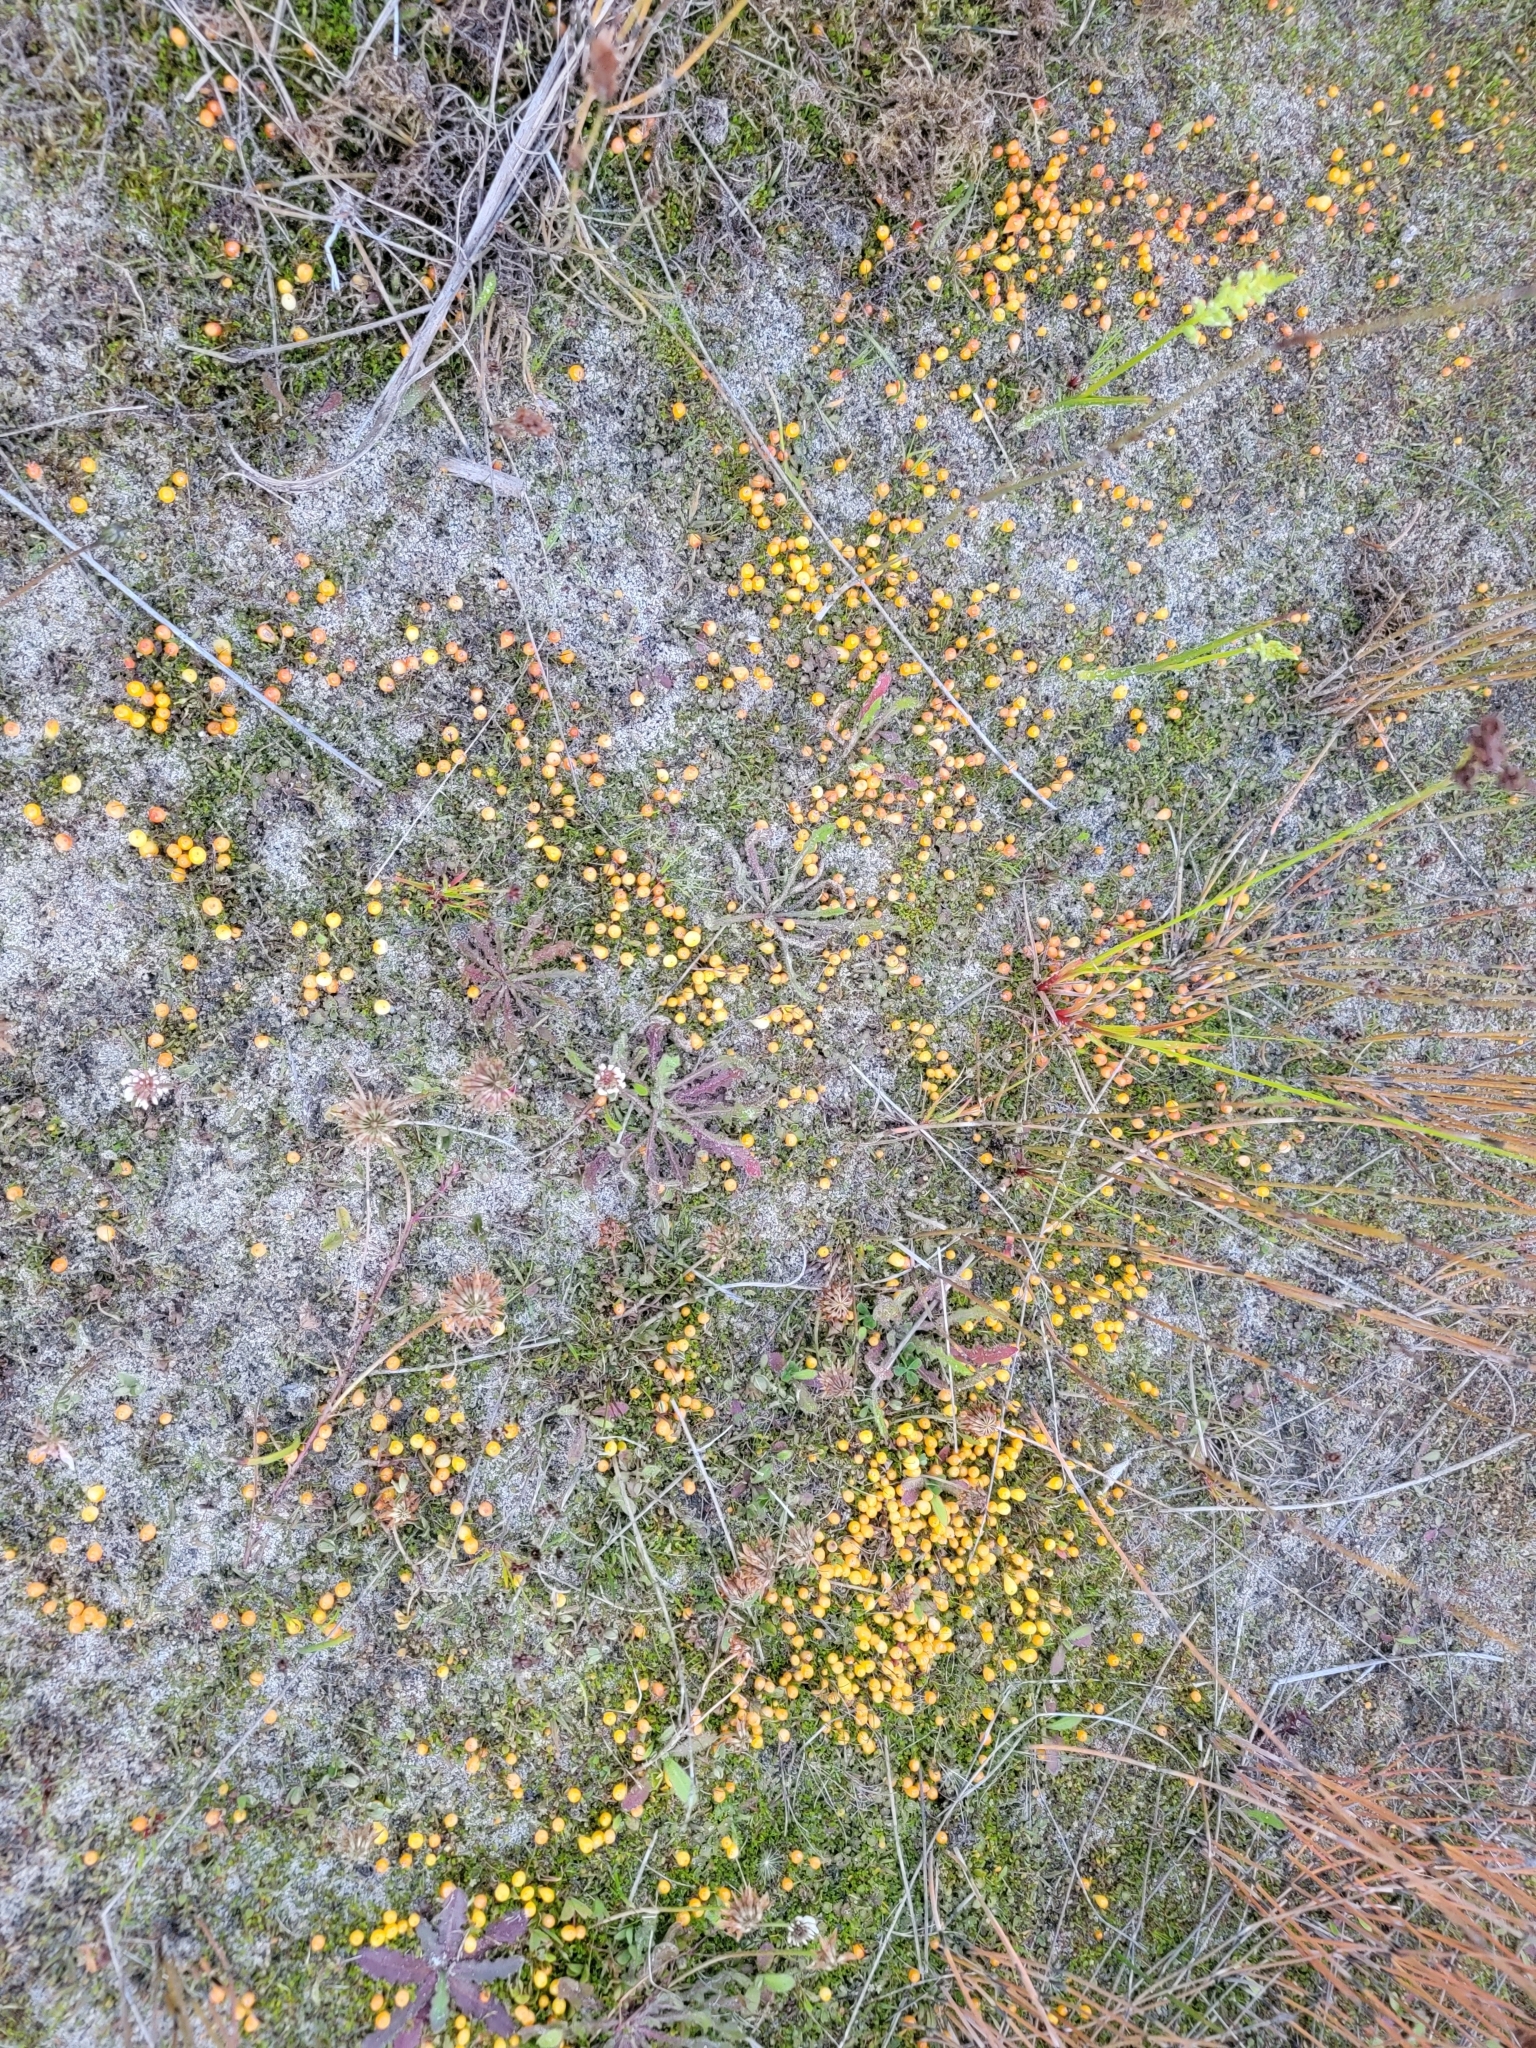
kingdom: Plantae
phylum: Tracheophyta
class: Magnoliopsida
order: Gentianales
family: Rubiaceae
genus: Coprosma
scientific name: Coprosma perpusilla
